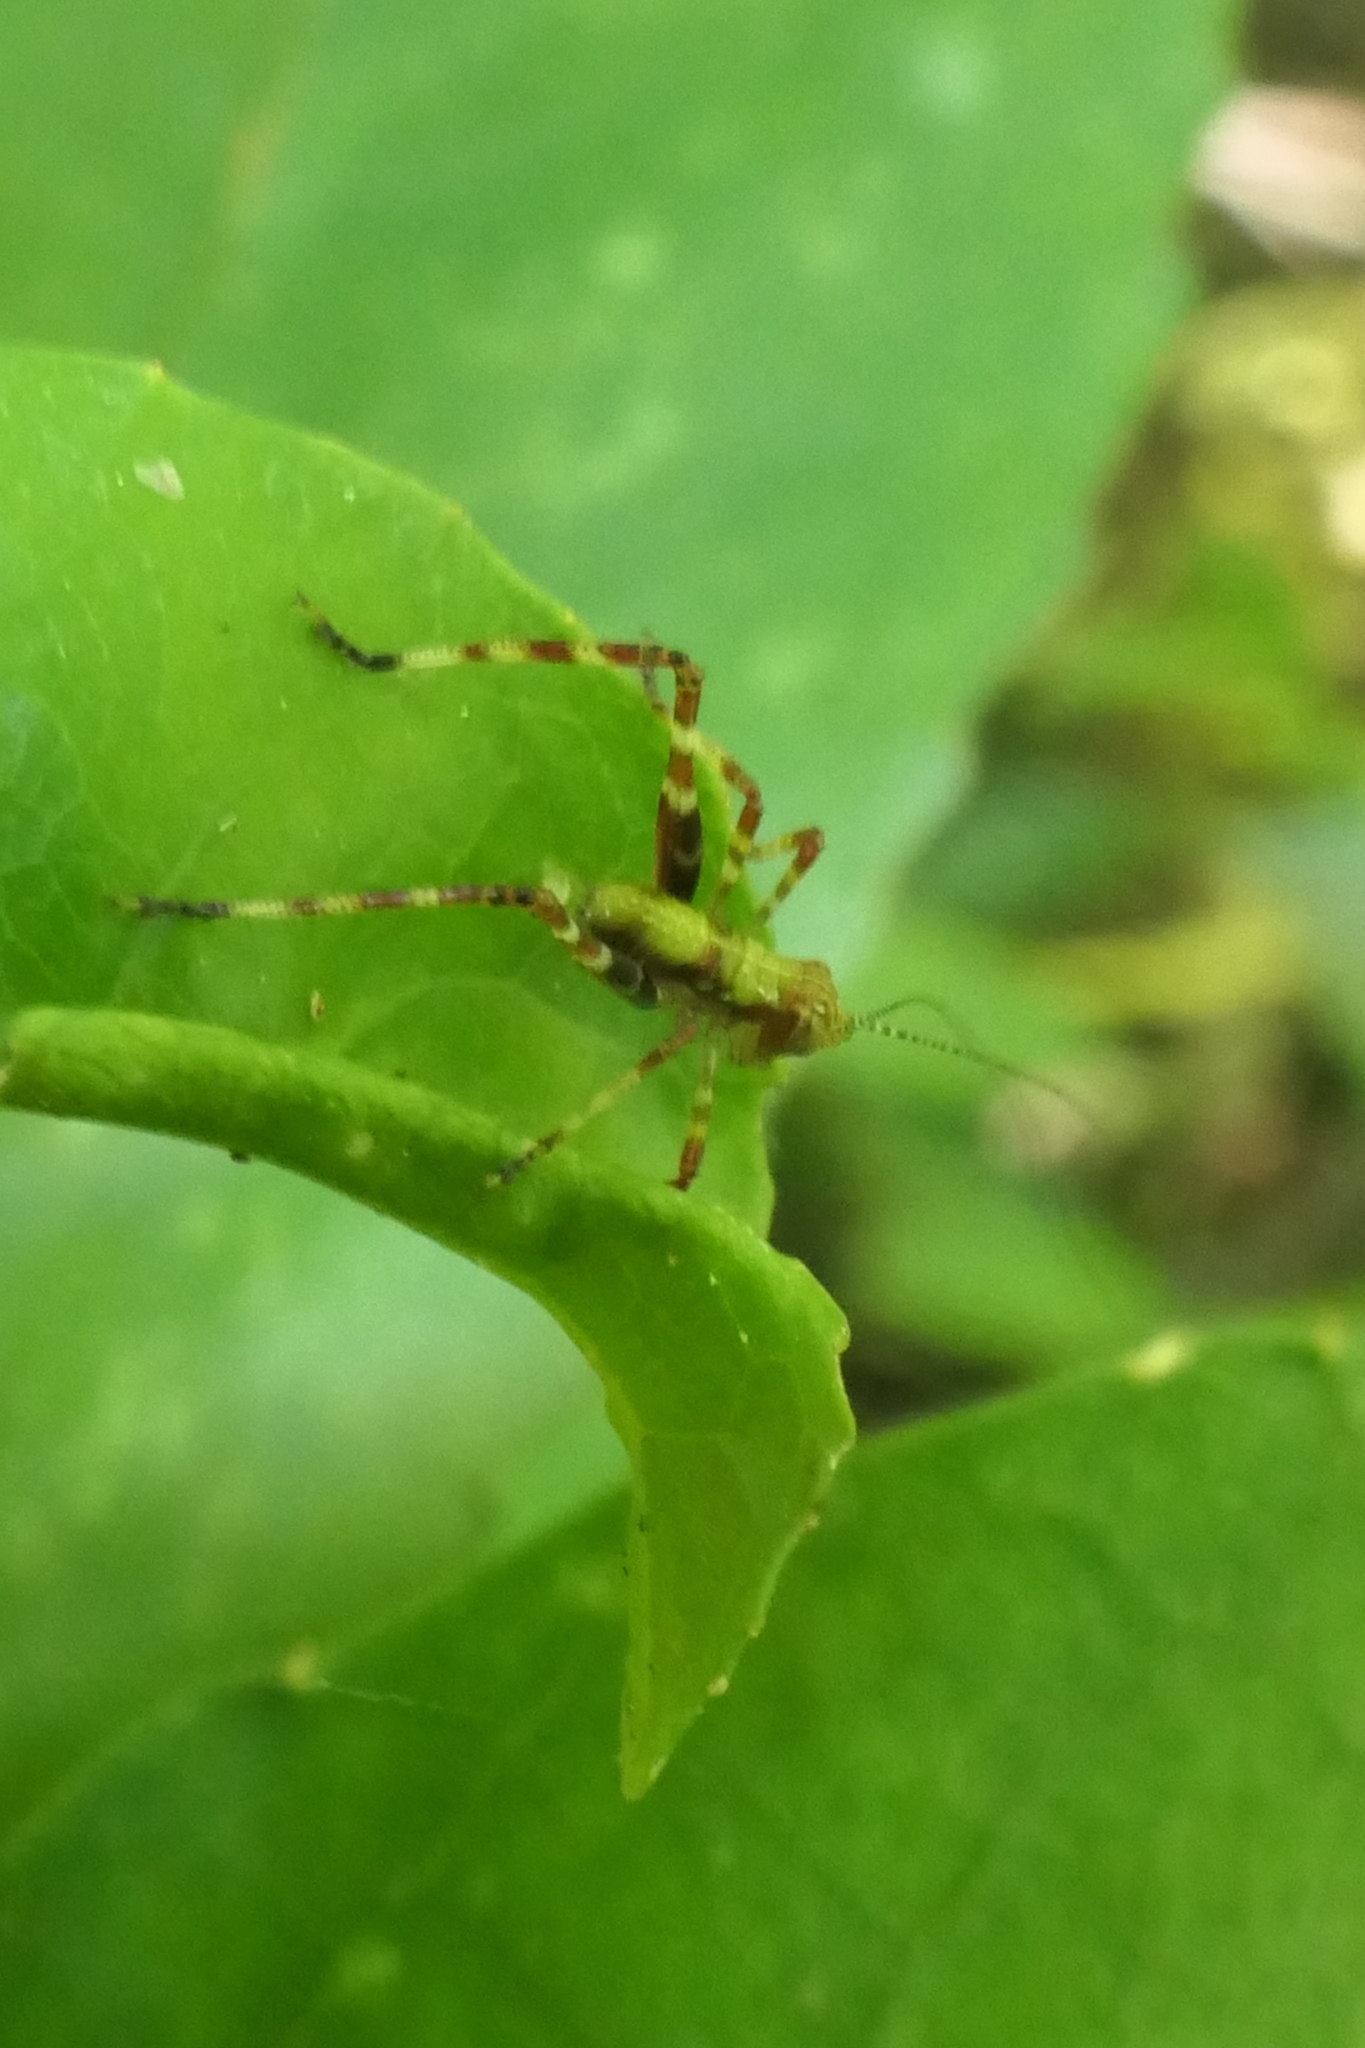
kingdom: Animalia
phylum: Arthropoda
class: Insecta
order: Orthoptera
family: Tettigoniidae
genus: Caedicia
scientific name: Caedicia simplex
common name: Common garden katydid
